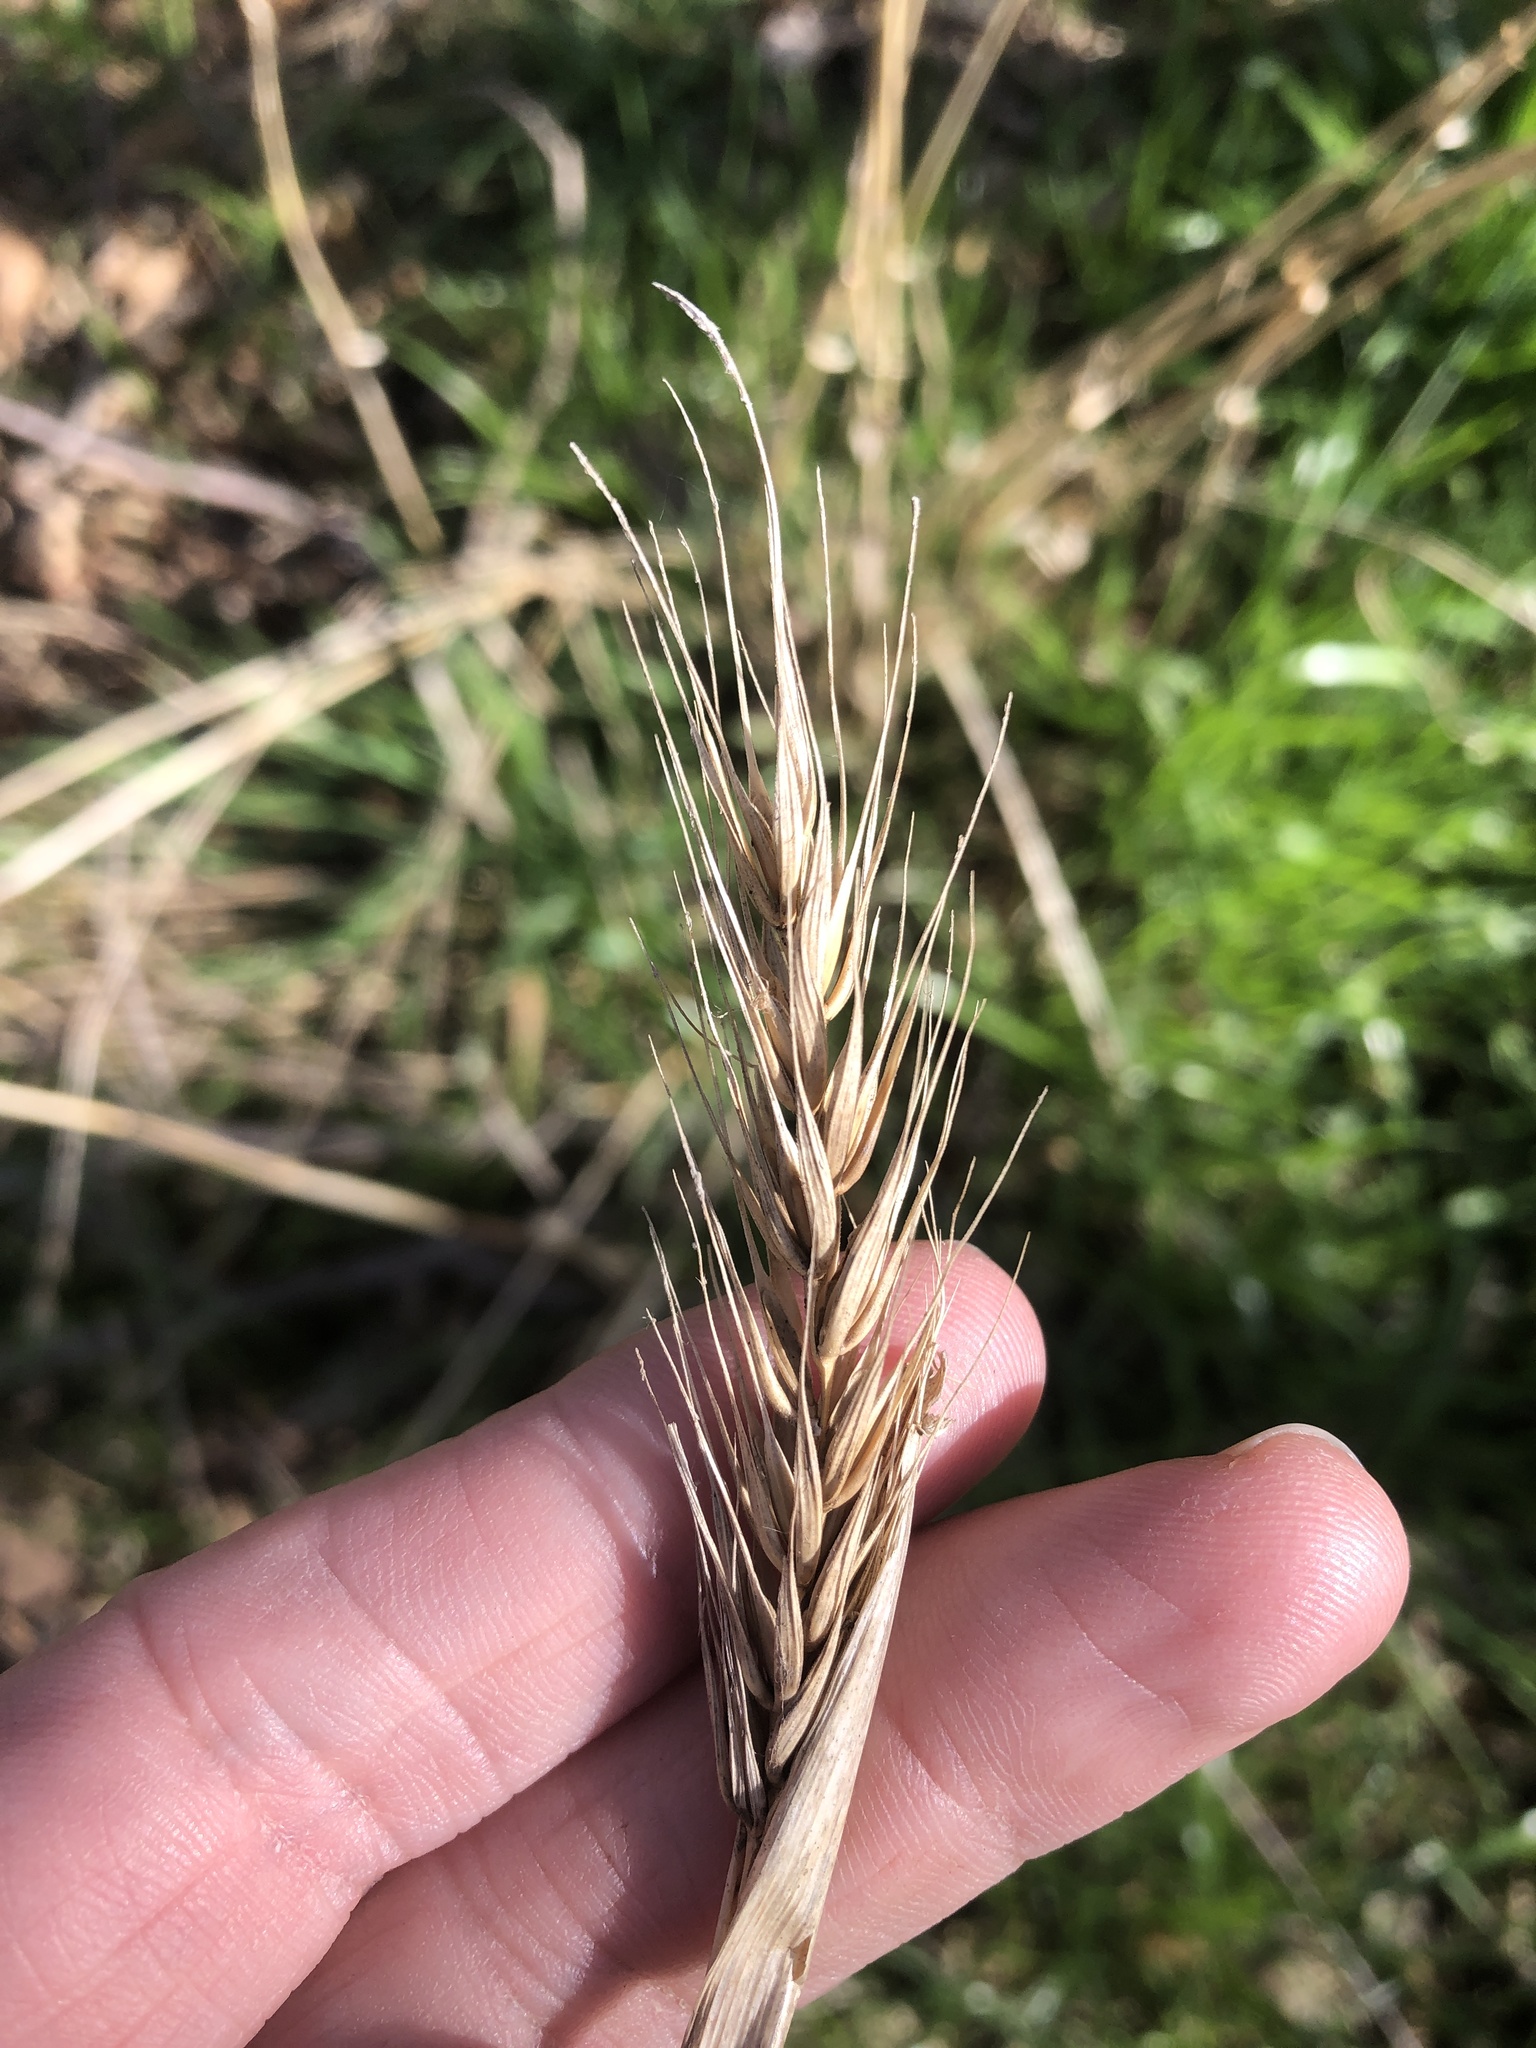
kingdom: Plantae
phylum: Tracheophyta
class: Liliopsida
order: Poales
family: Poaceae
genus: Elymus
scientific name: Elymus virginicus
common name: Common eastern wildrye
